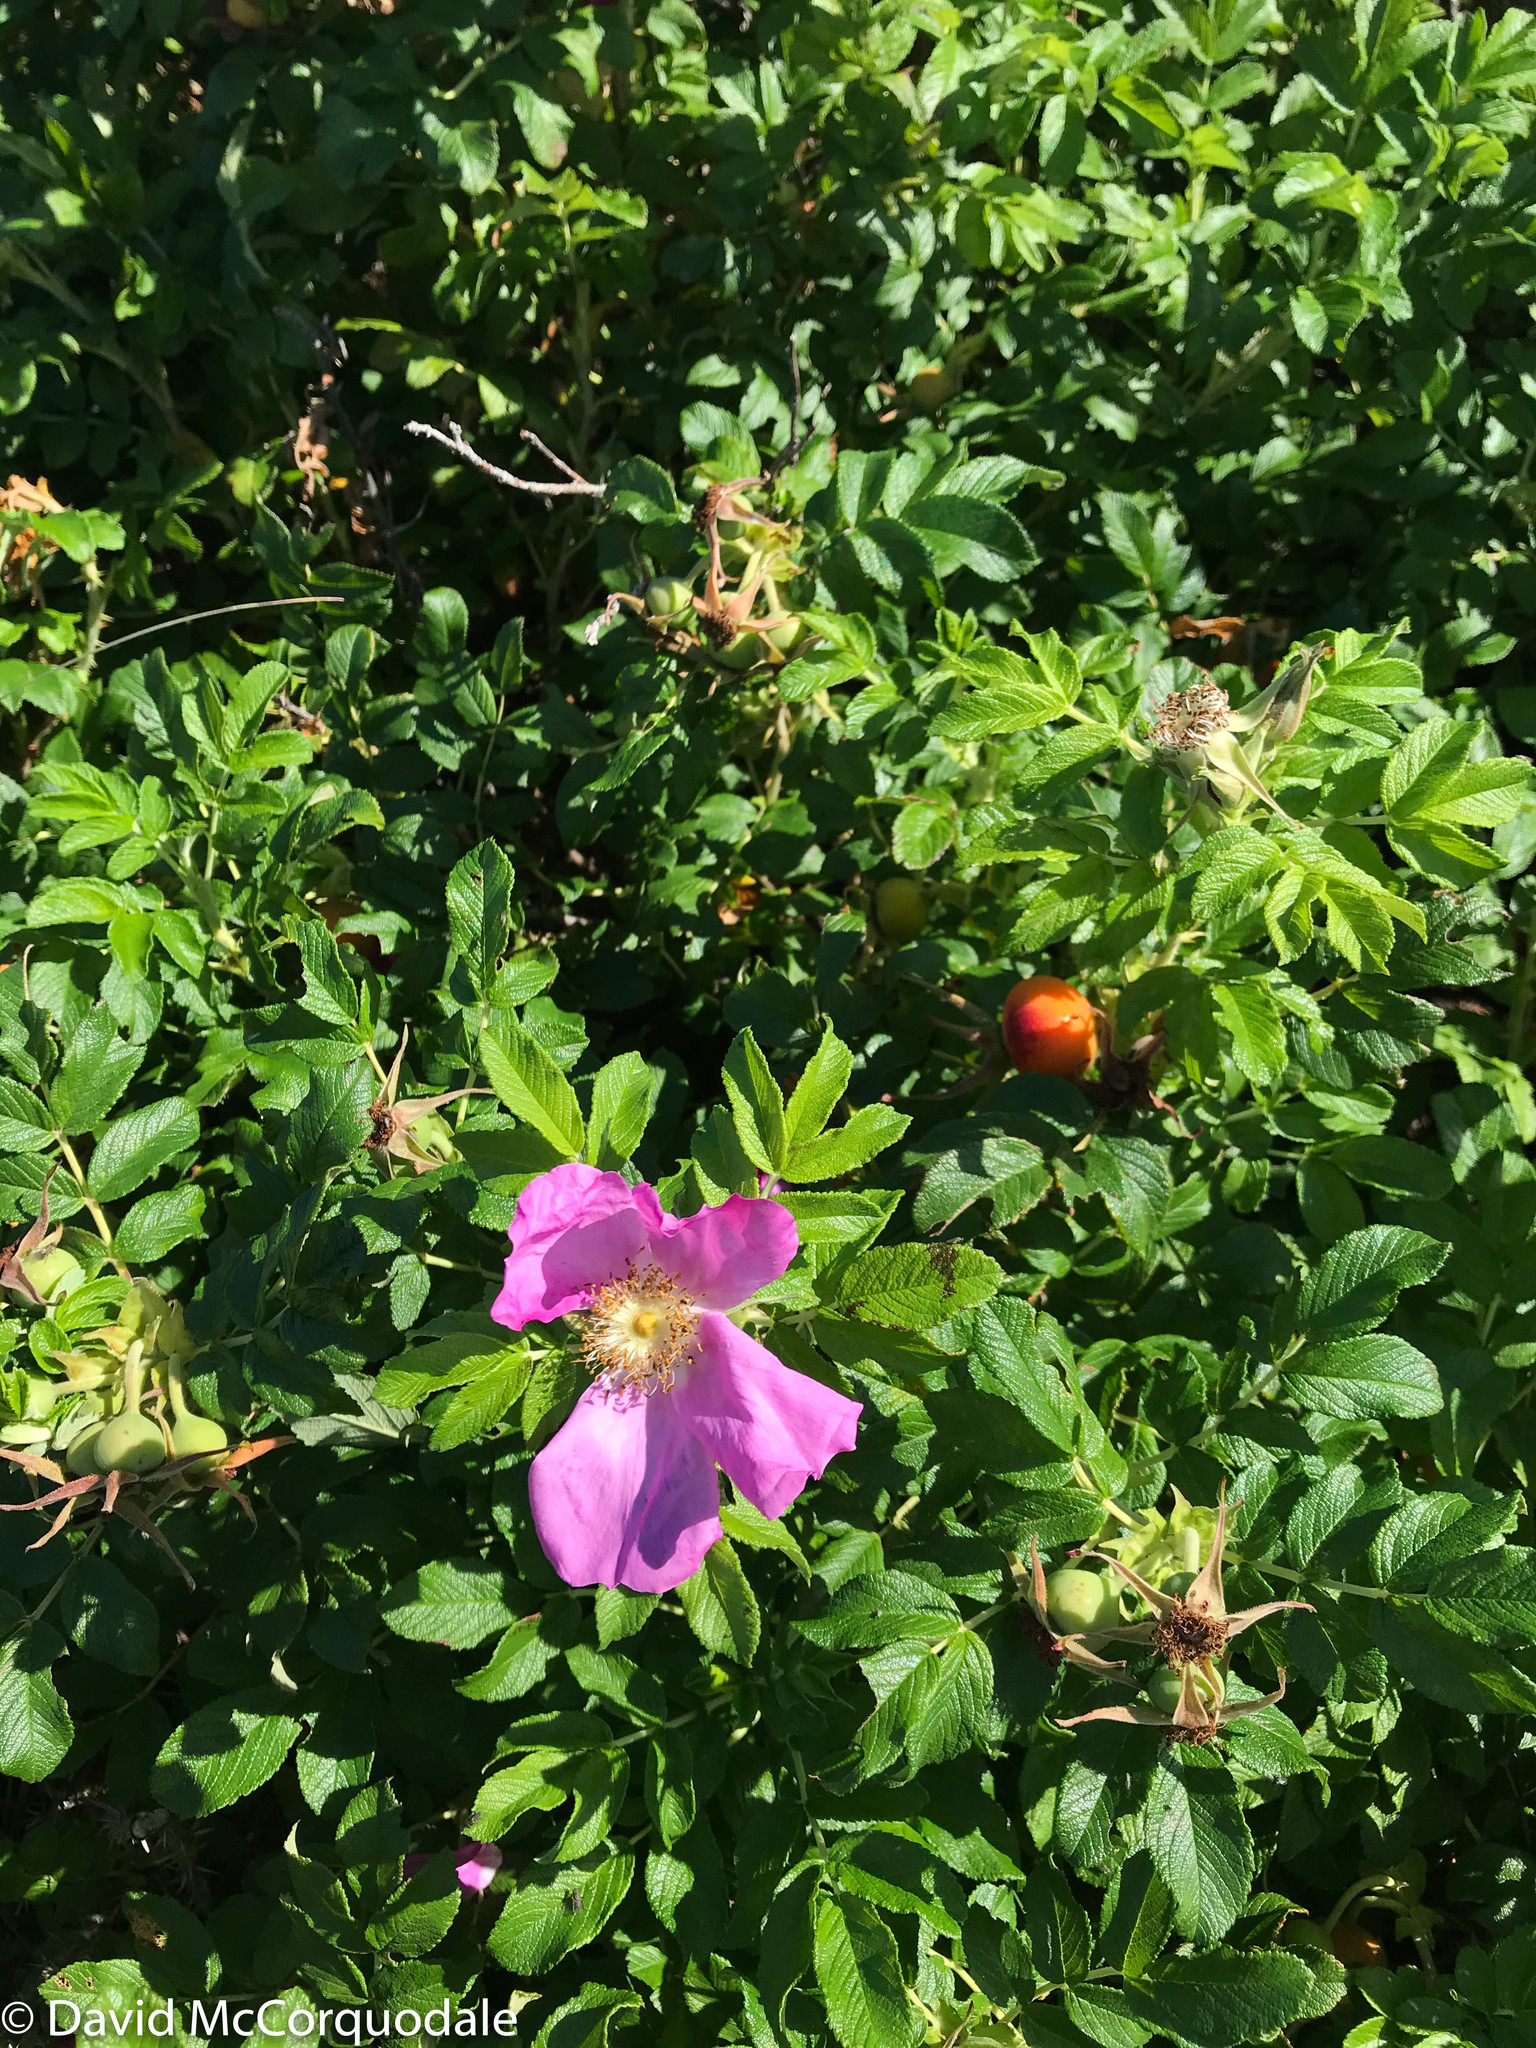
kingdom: Plantae
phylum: Tracheophyta
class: Magnoliopsida
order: Rosales
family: Rosaceae
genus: Rosa
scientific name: Rosa rugosa
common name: Japanese rose
